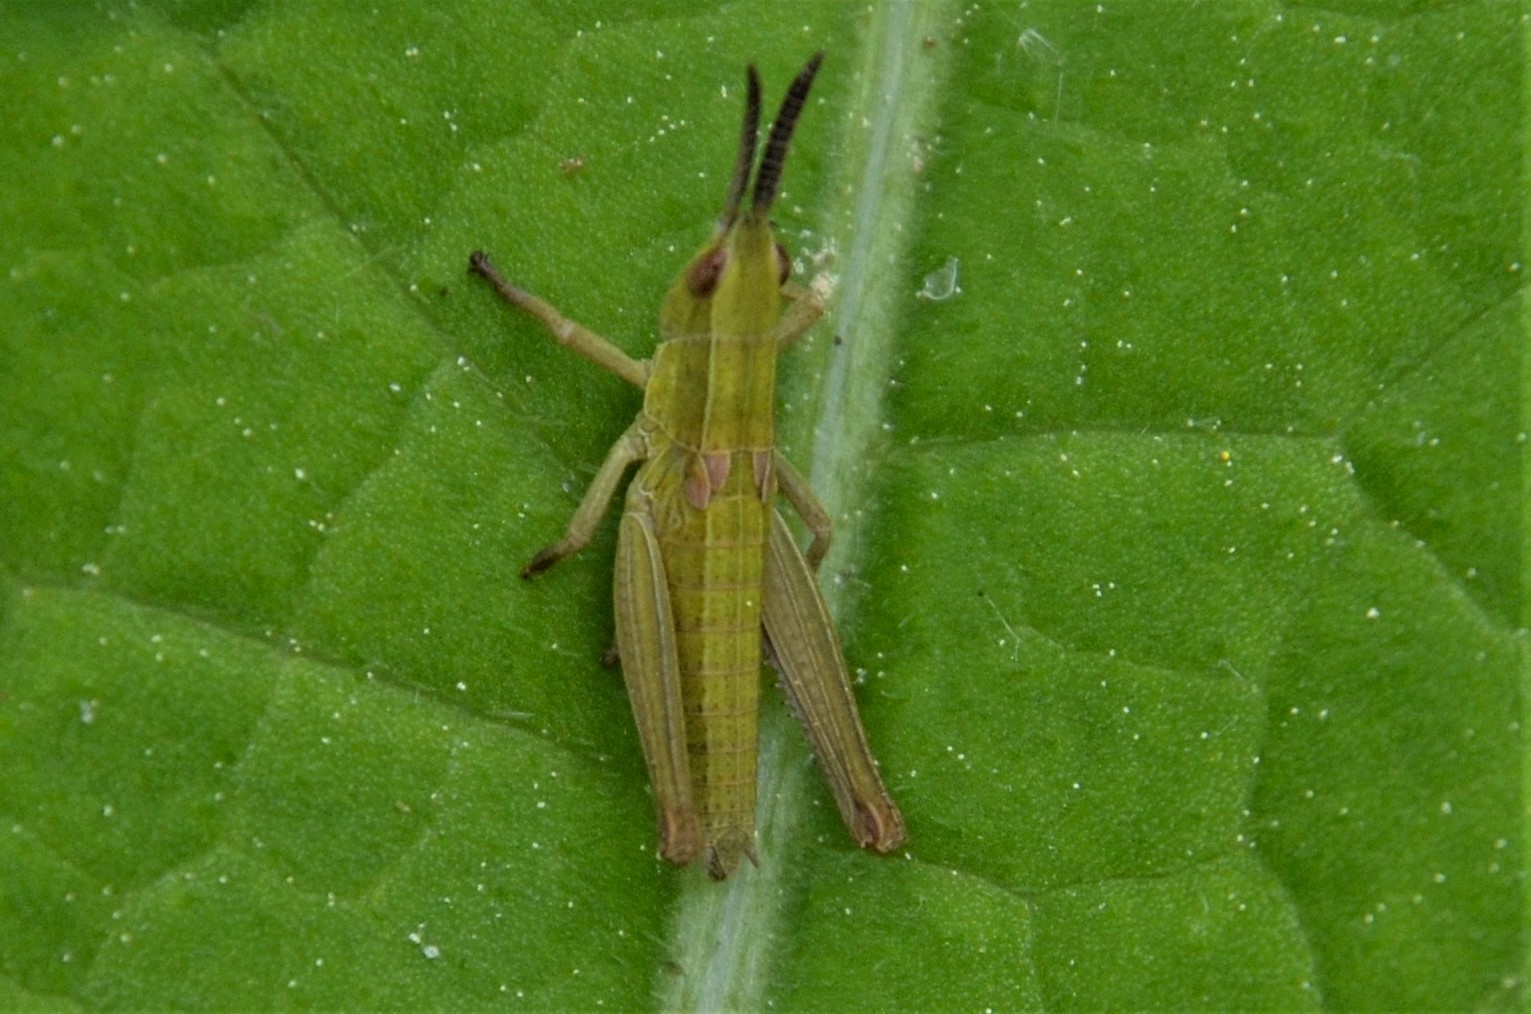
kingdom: Animalia
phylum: Arthropoda
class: Insecta
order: Orthoptera
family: Acrididae
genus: Euthystira
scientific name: Euthystira brachyptera
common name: Small gold grasshopper
